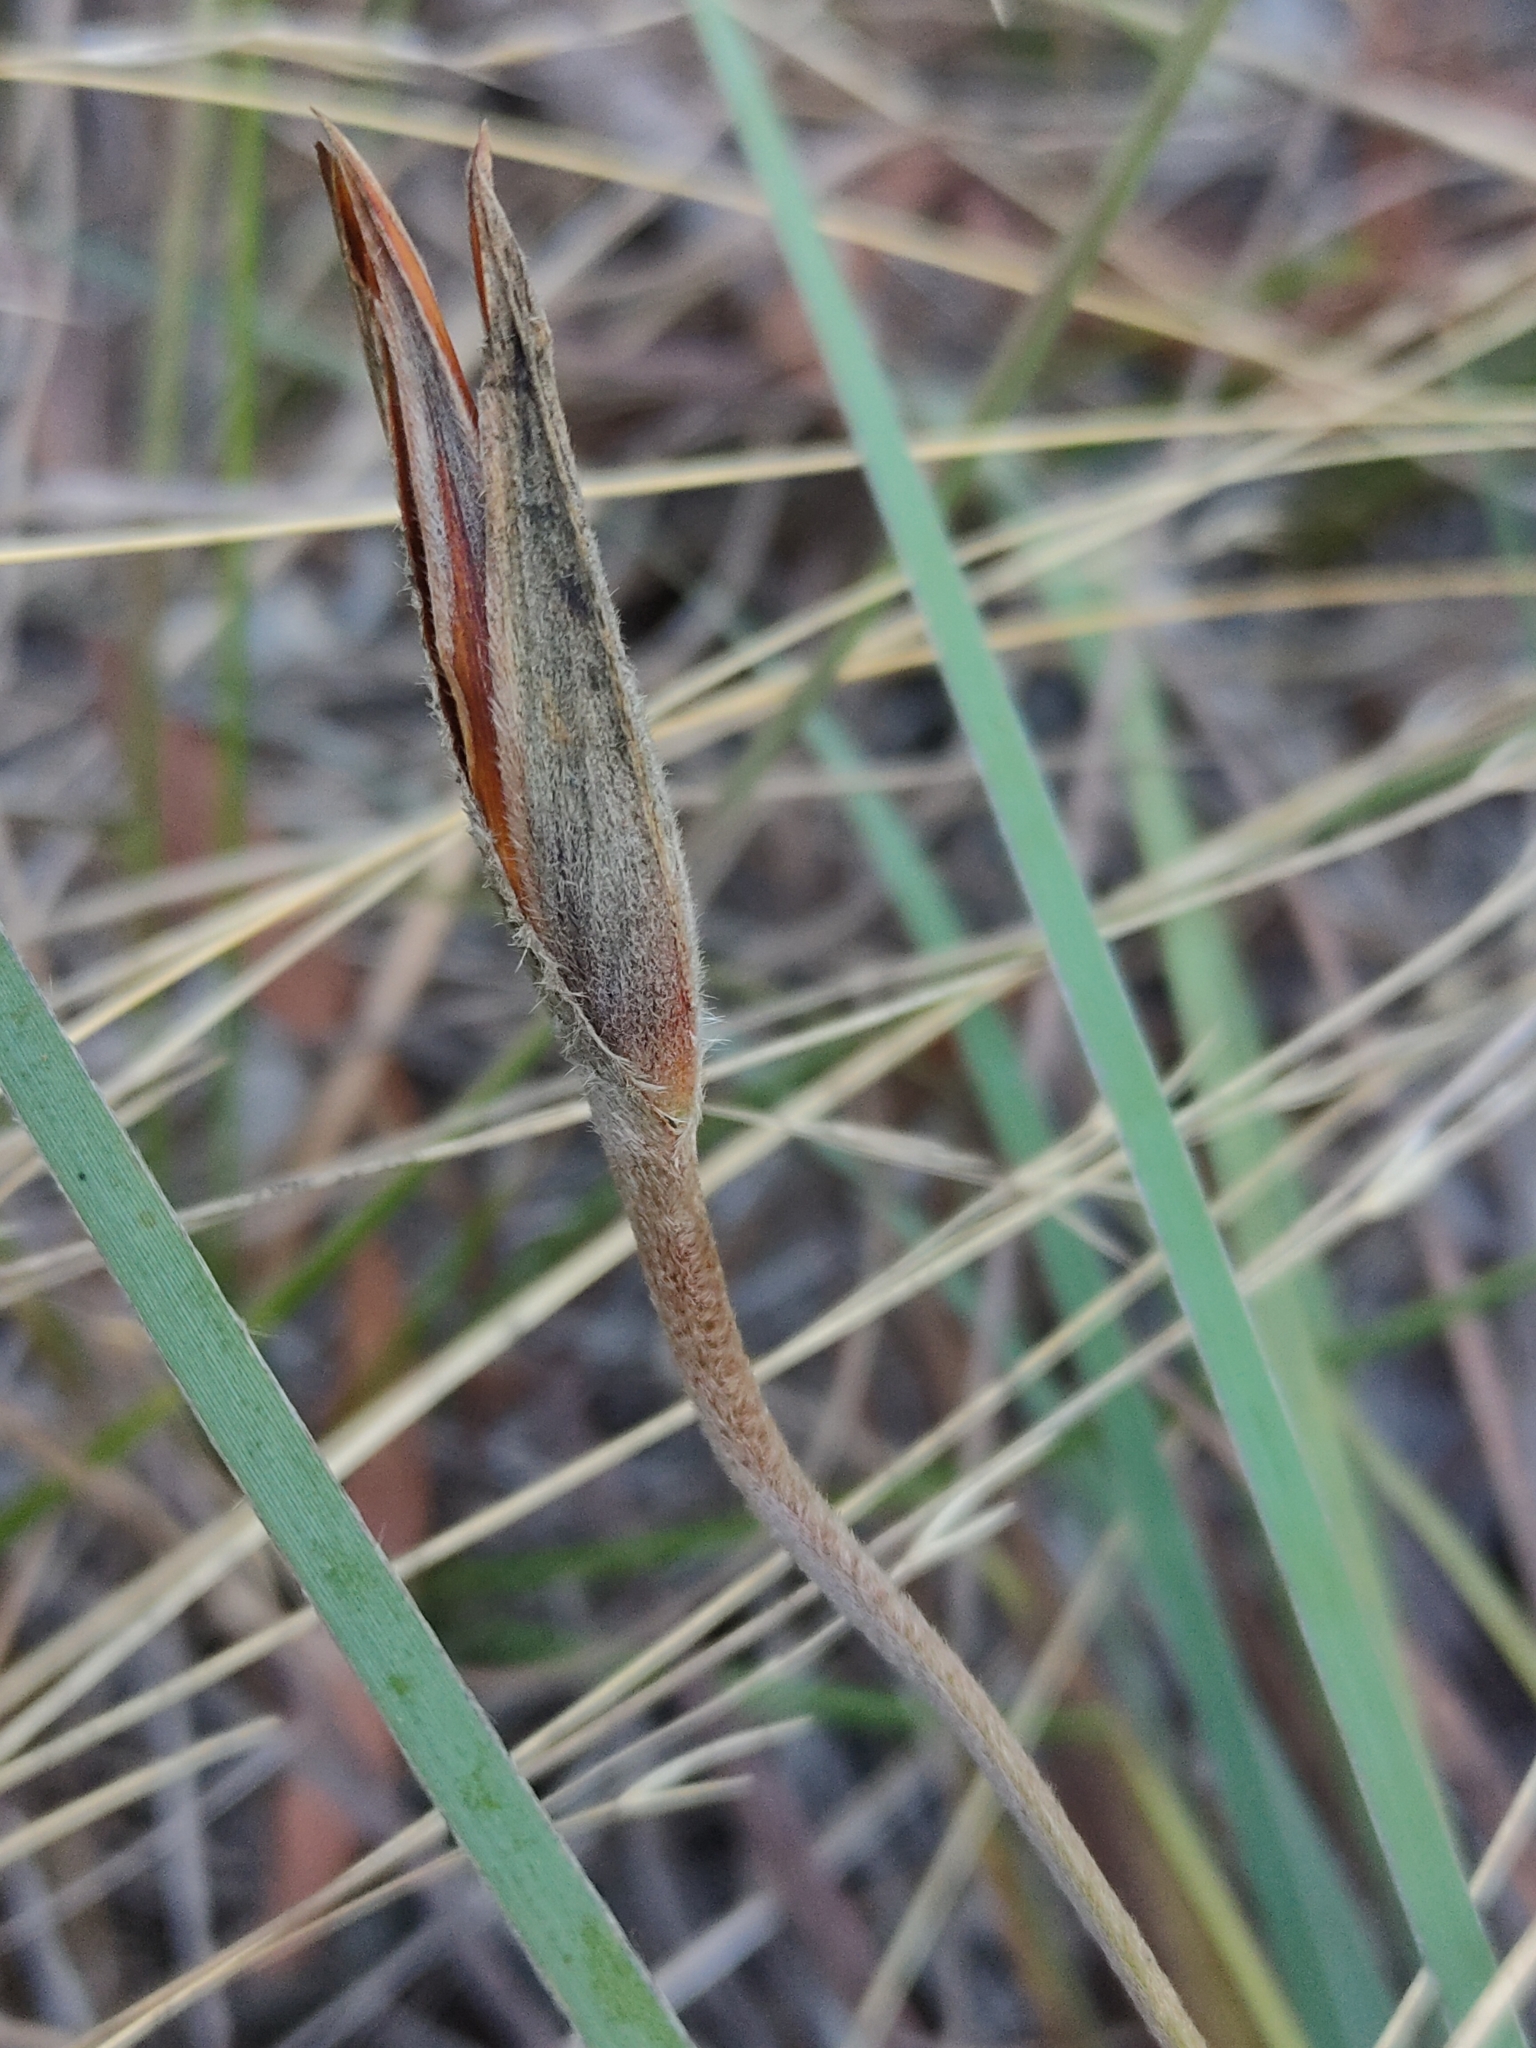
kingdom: Plantae
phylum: Tracheophyta
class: Liliopsida
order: Asparagales
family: Iridaceae
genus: Patersonia
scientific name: Patersonia sericea
